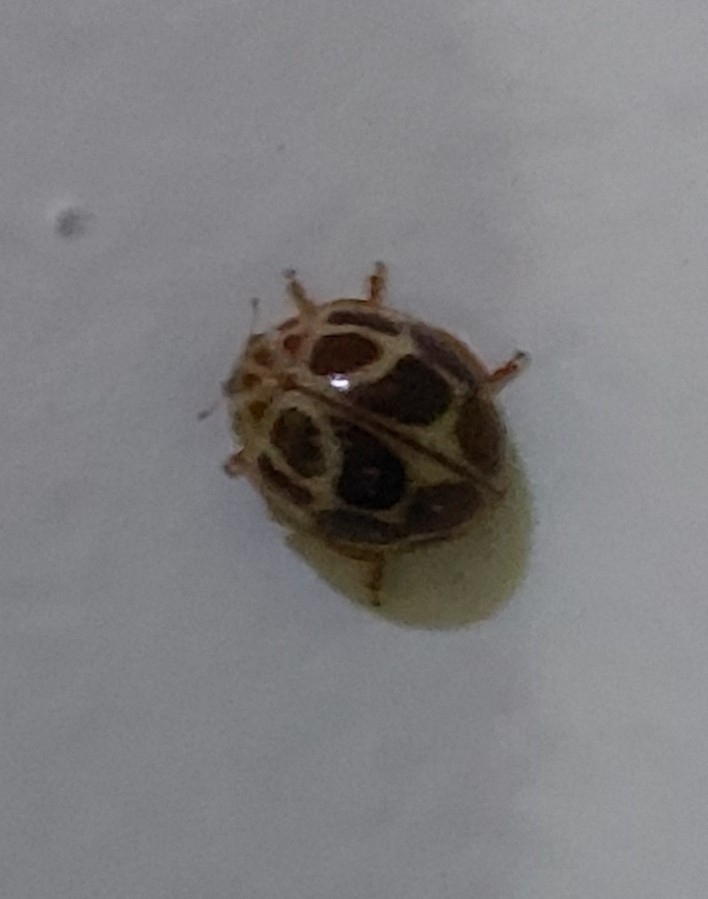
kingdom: Animalia
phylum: Arthropoda
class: Insecta
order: Coleoptera
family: Coccinellidae
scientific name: Coccinellidae
